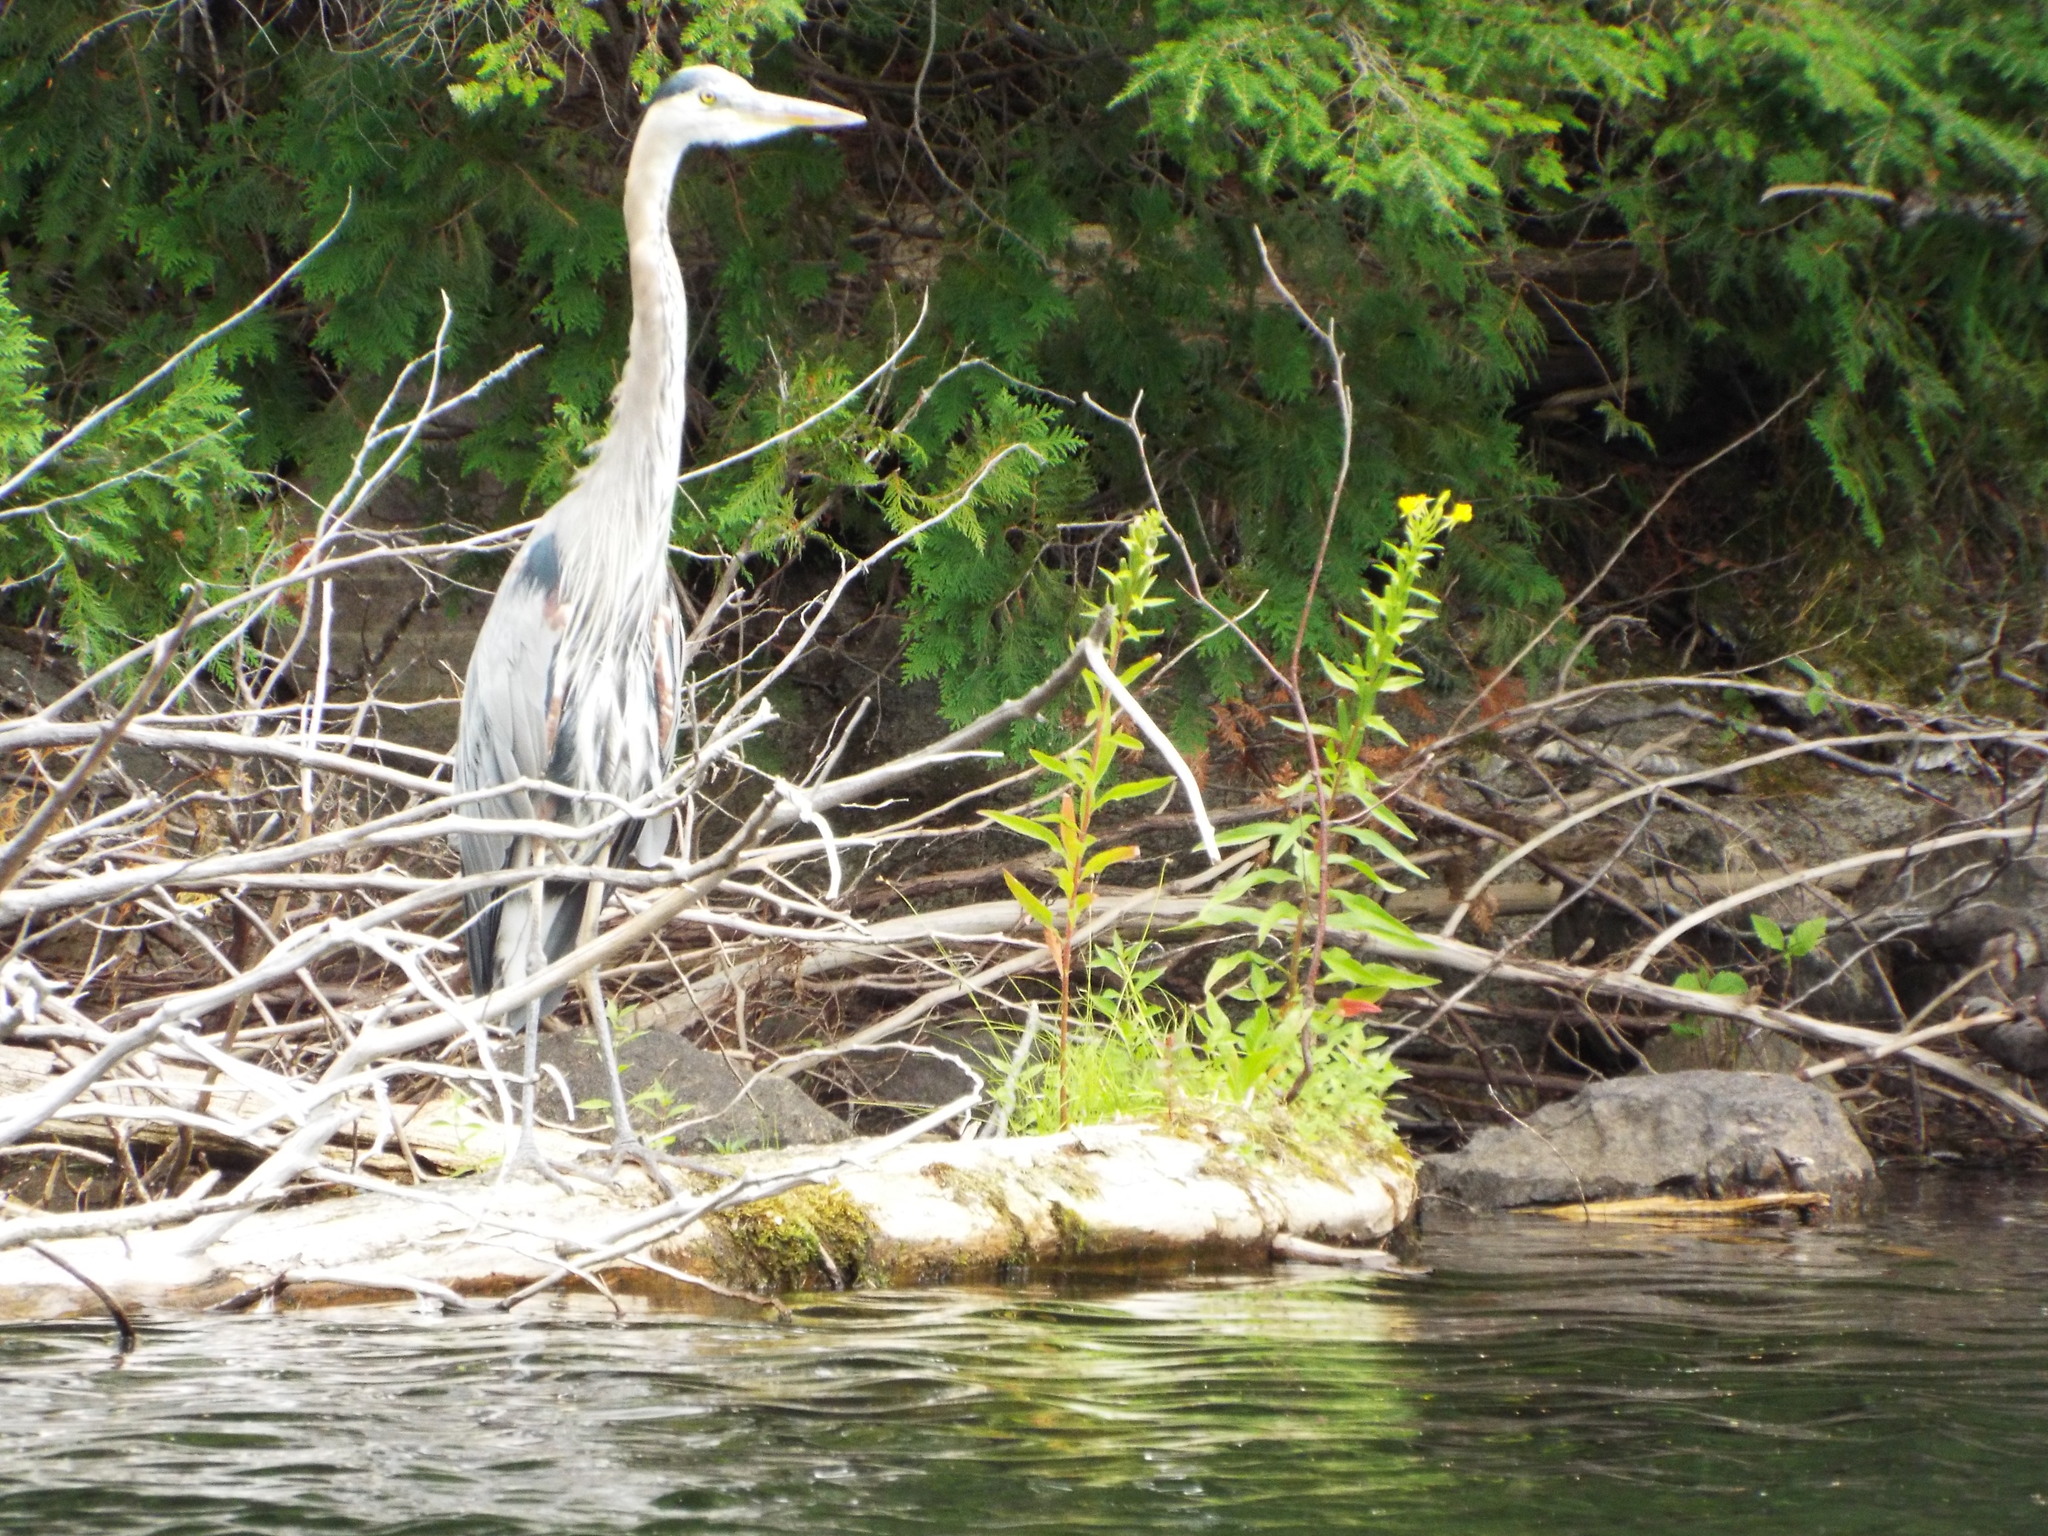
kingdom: Animalia
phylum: Chordata
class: Aves
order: Pelecaniformes
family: Ardeidae
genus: Ardea
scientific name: Ardea herodias
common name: Great blue heron
